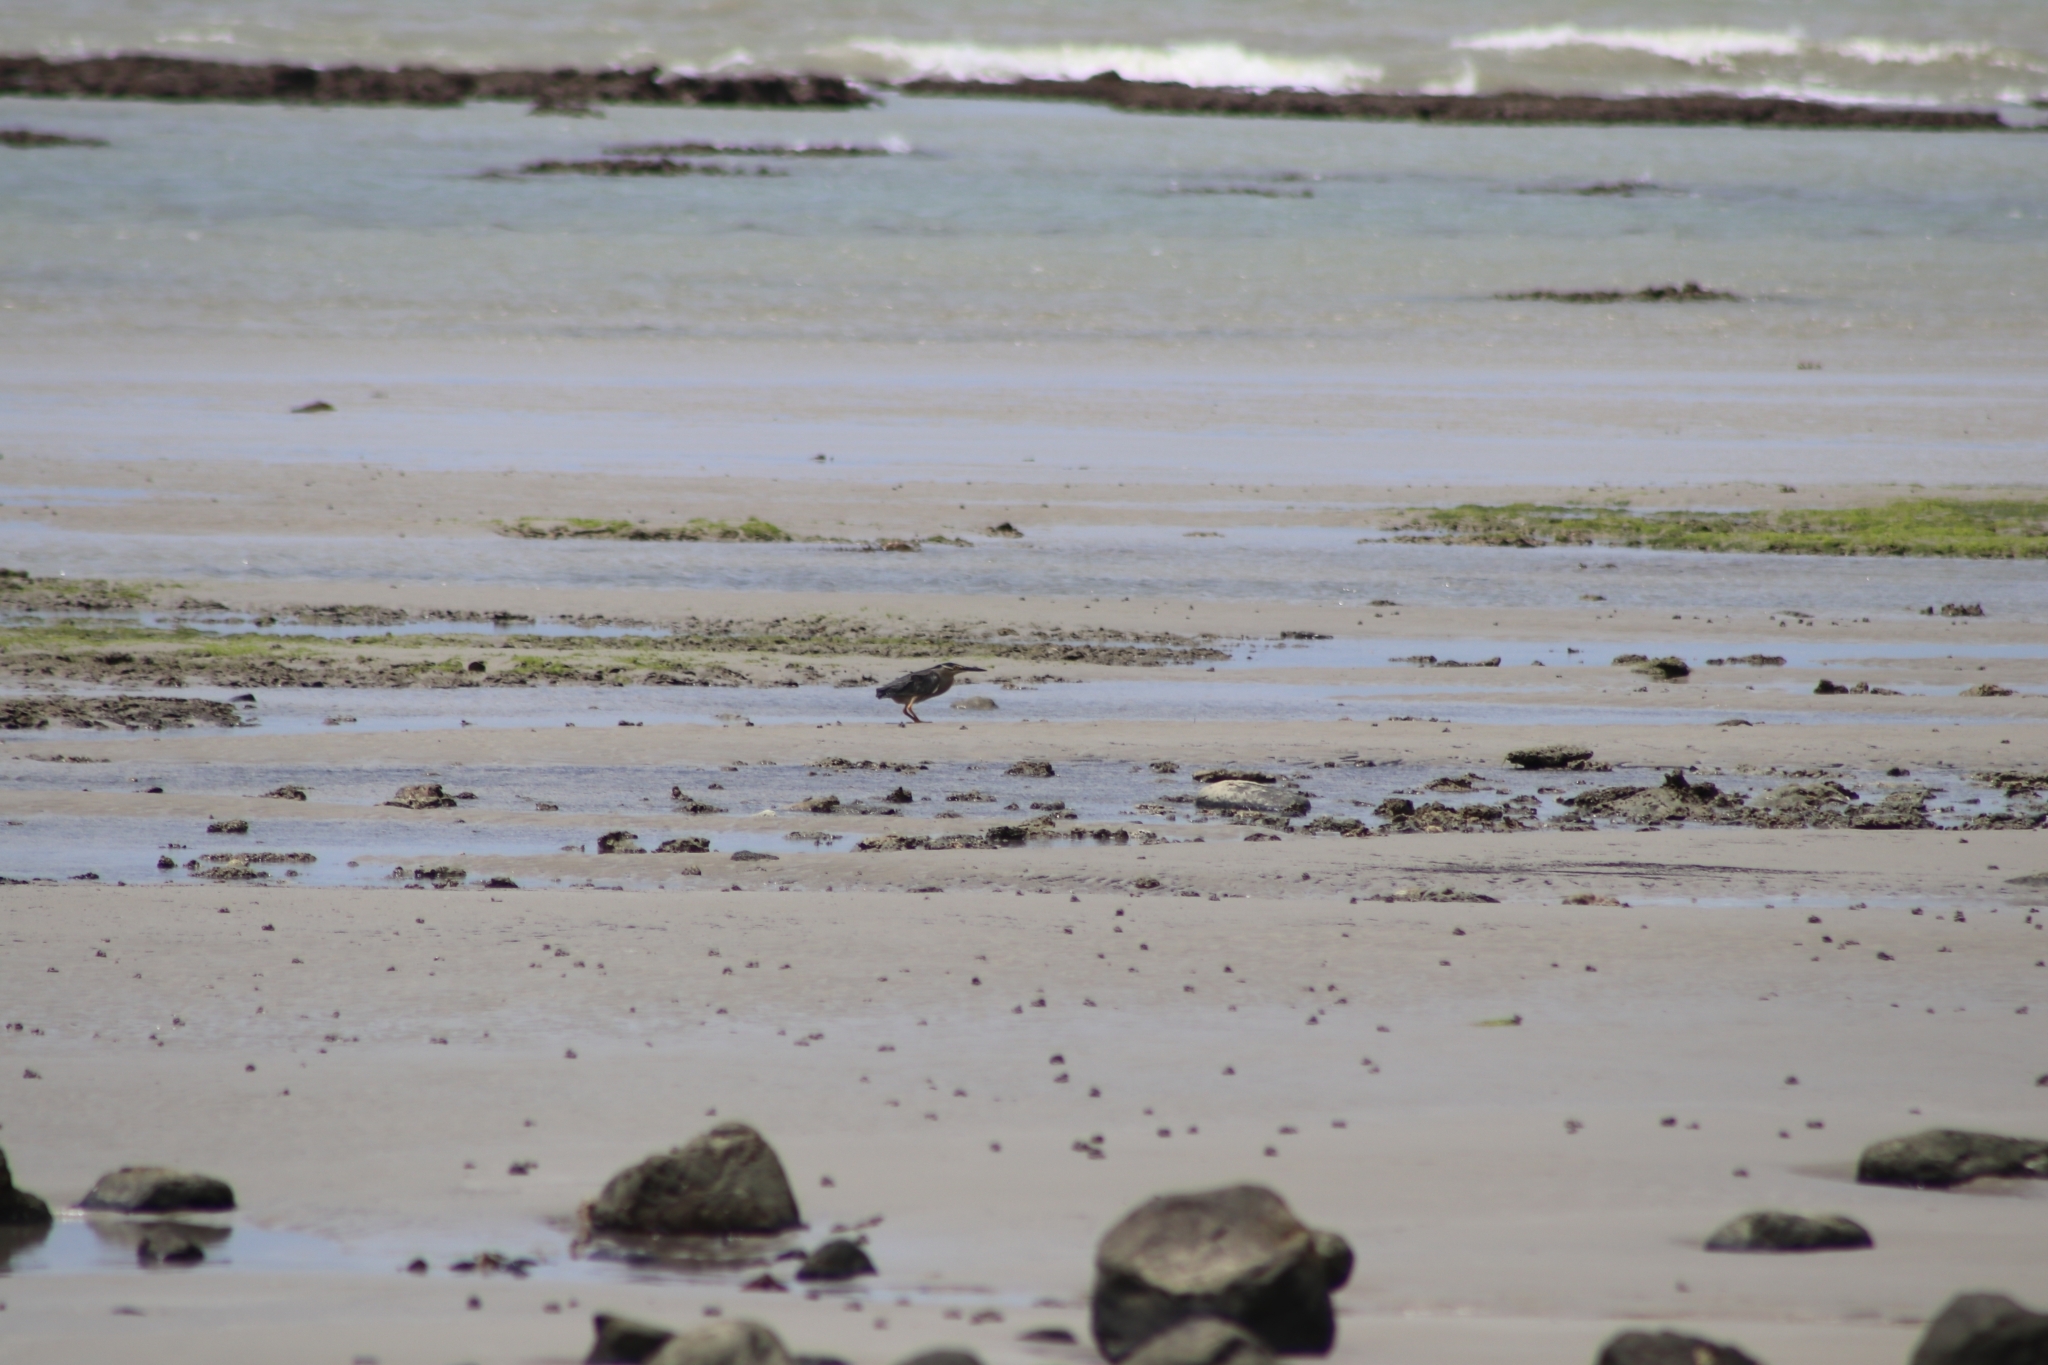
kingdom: Animalia
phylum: Chordata
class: Aves
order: Pelecaniformes
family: Ardeidae
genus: Butorides
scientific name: Butorides striata
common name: Striated heron
